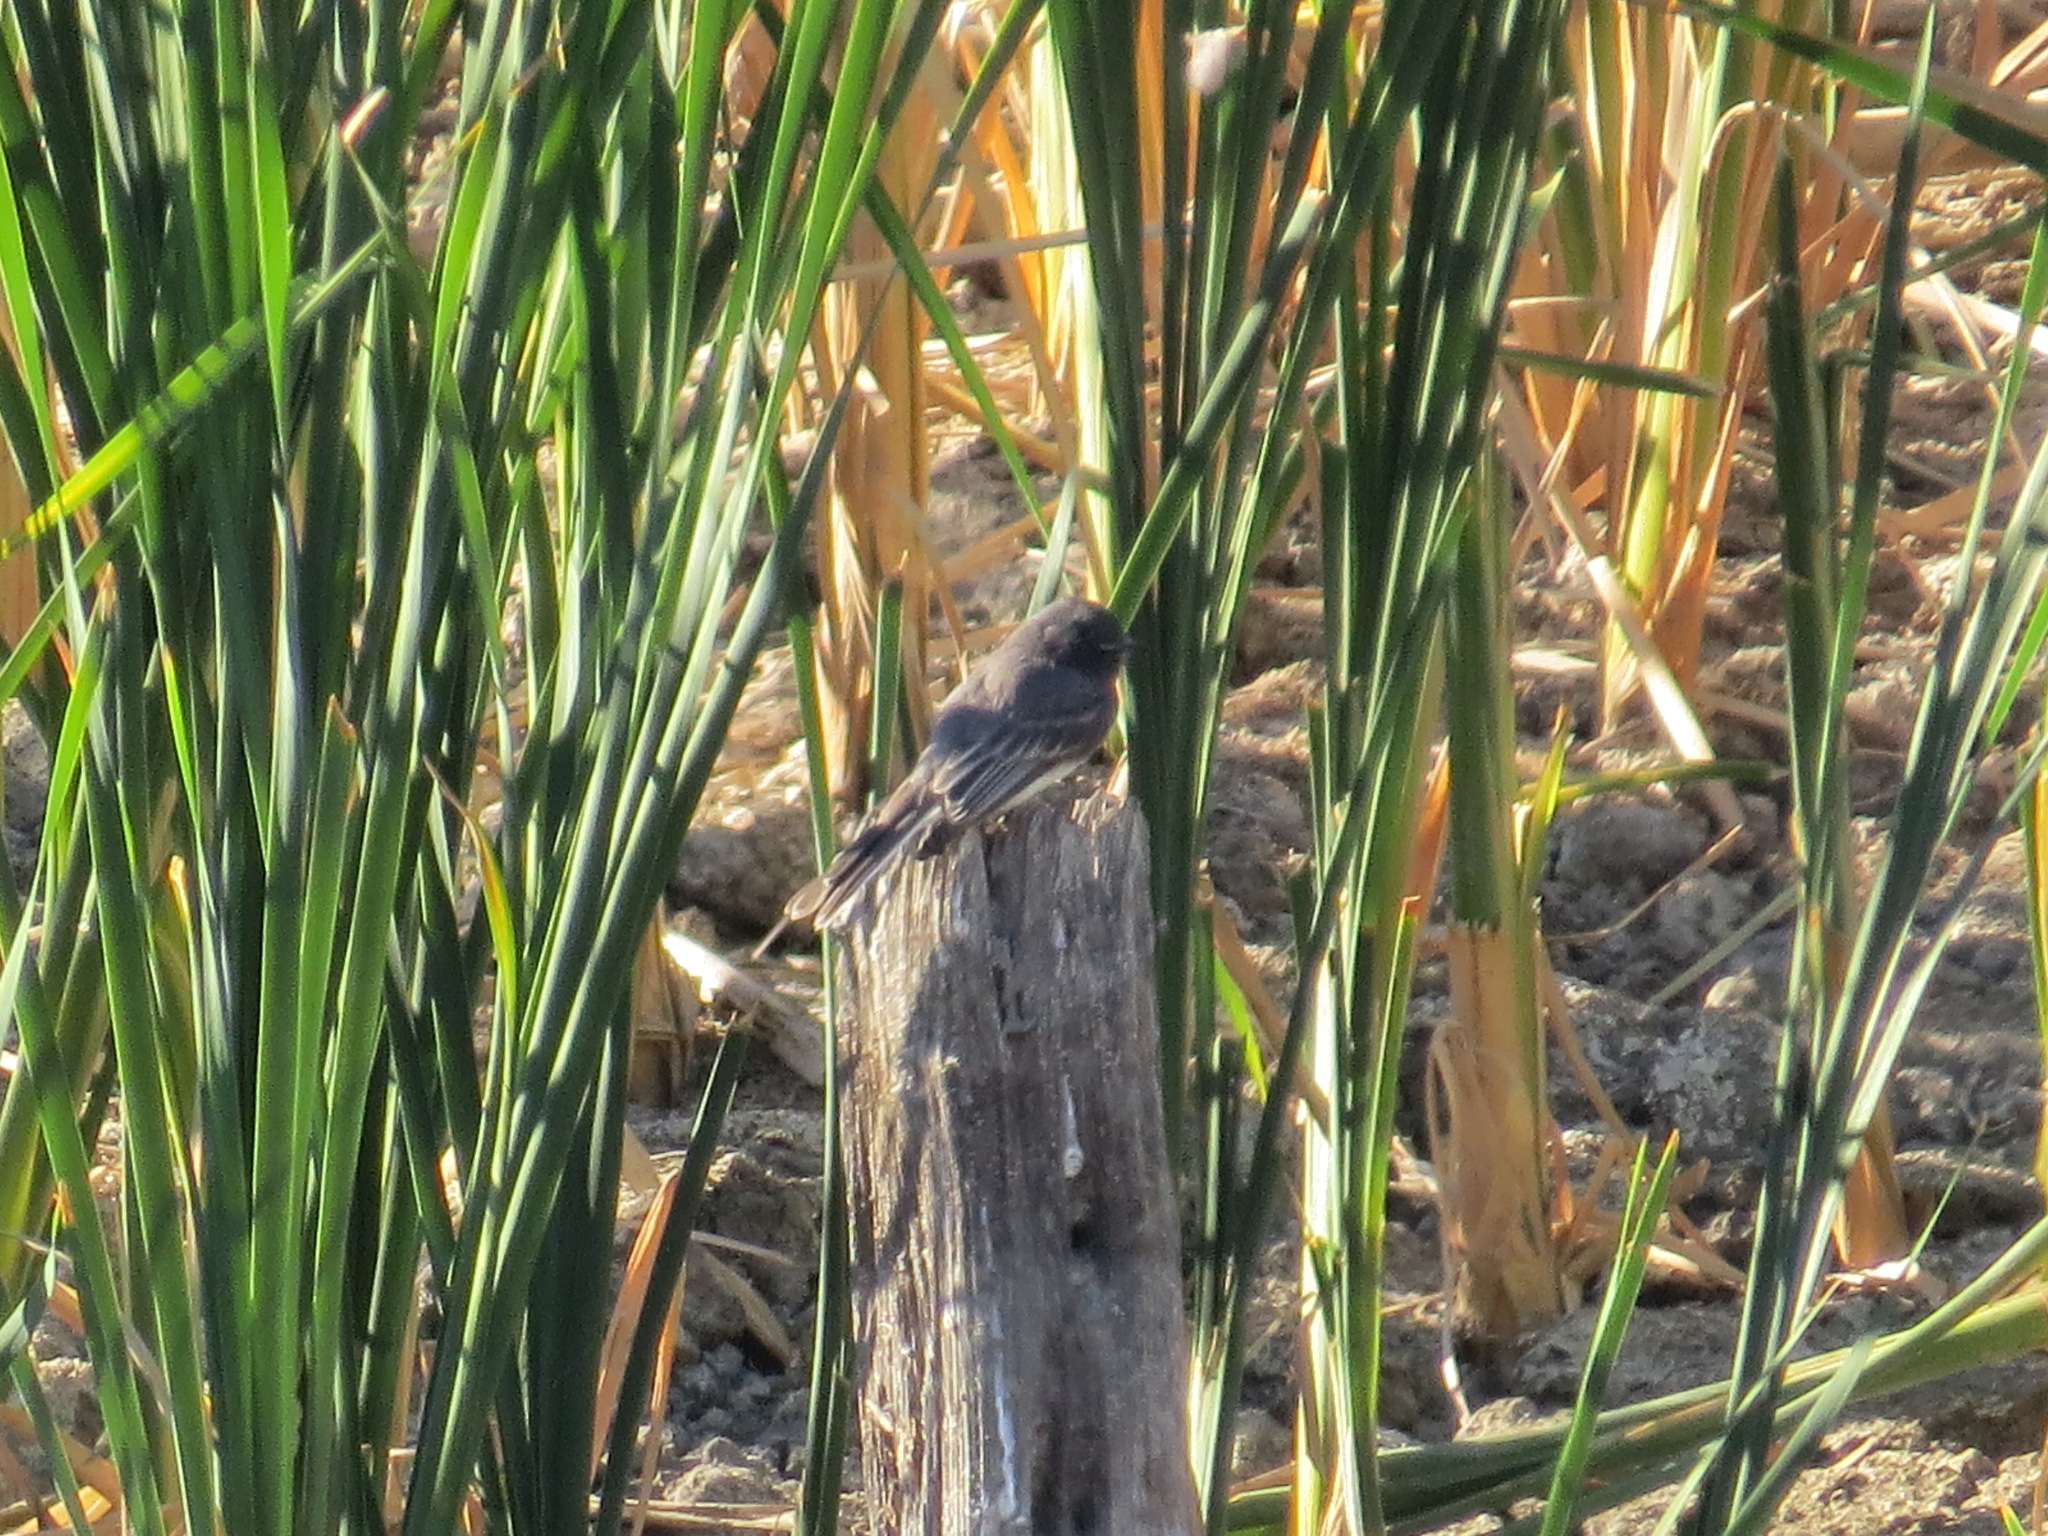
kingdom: Animalia
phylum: Chordata
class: Aves
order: Passeriformes
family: Tyrannidae
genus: Sayornis
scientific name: Sayornis nigricans
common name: Black phoebe
